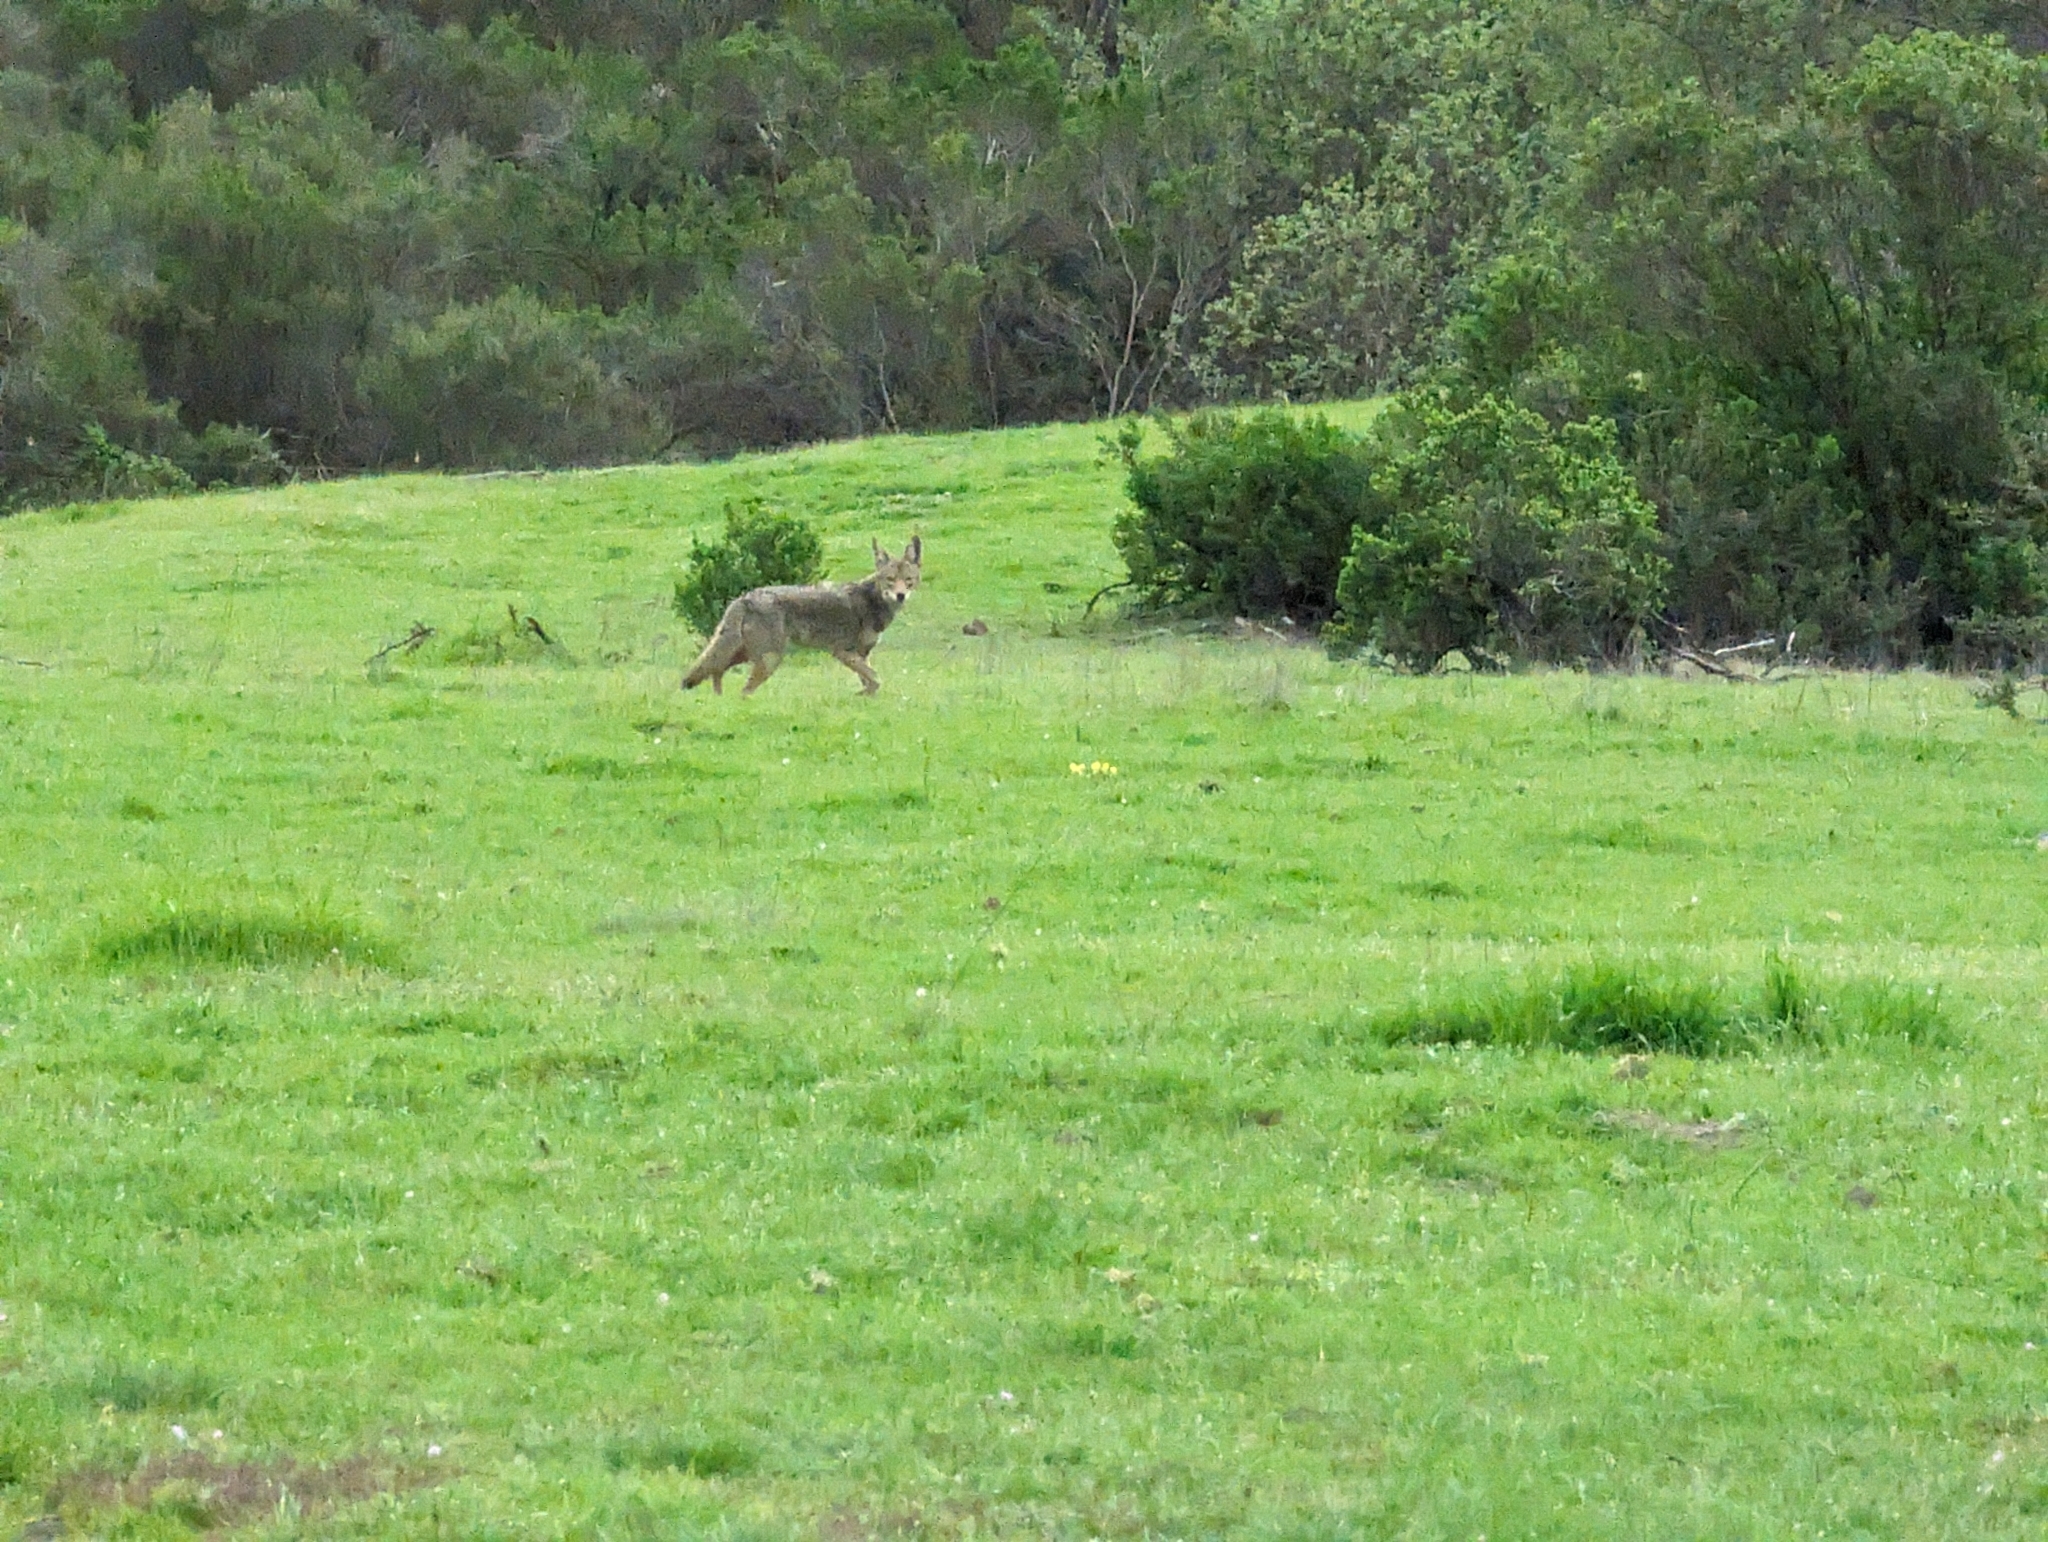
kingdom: Animalia
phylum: Chordata
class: Mammalia
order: Carnivora
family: Canidae
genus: Canis
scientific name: Canis latrans
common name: Coyote
